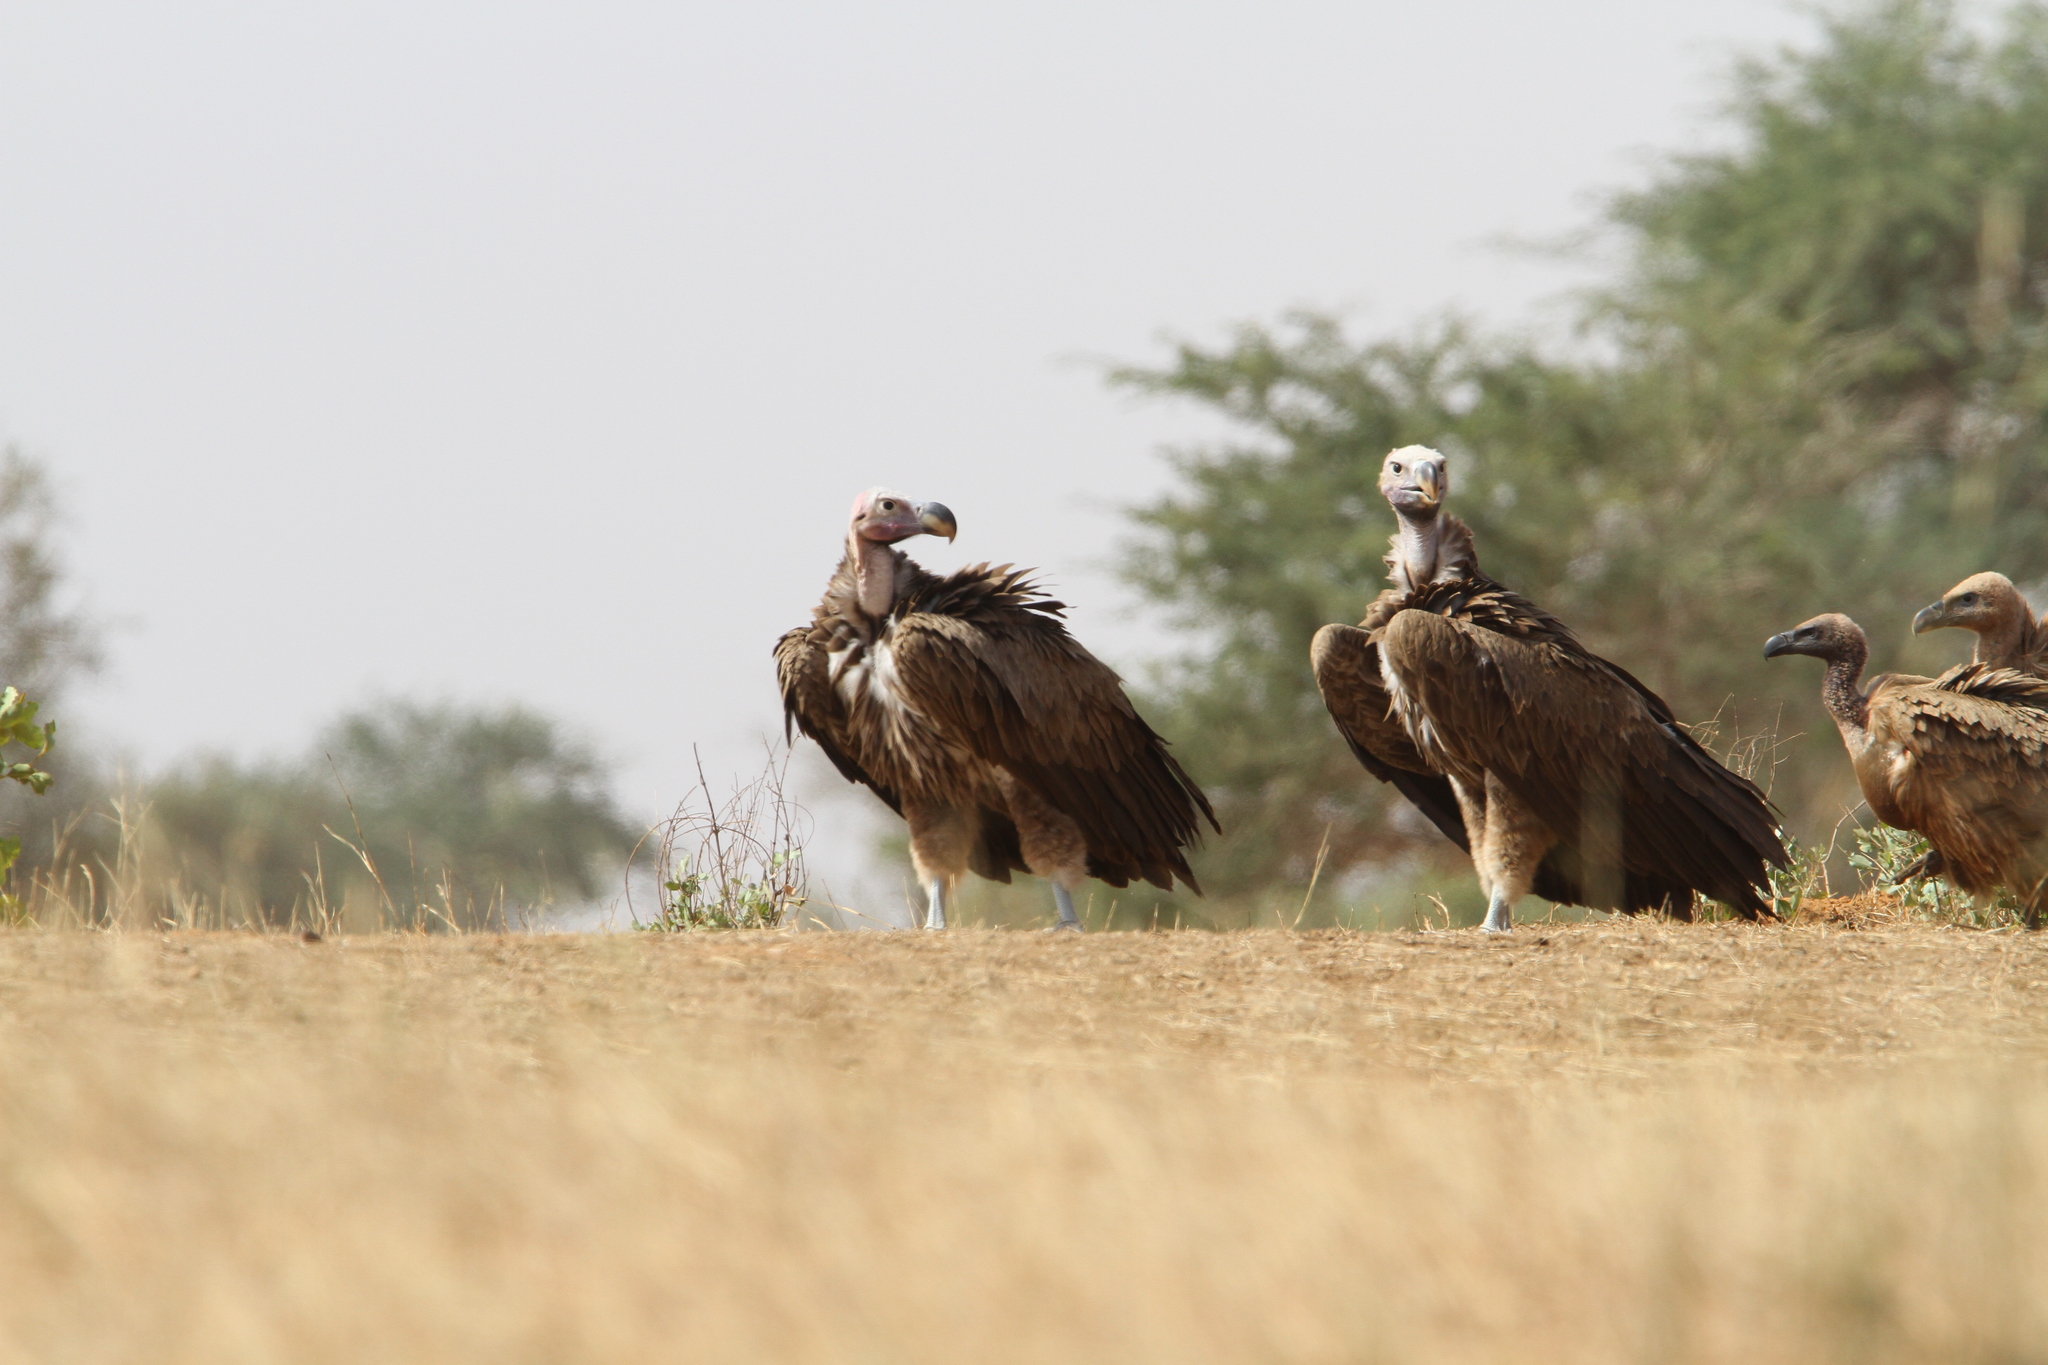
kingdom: Animalia
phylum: Chordata
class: Aves
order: Accipitriformes
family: Accipitridae
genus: Torgos
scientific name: Torgos tracheliotos
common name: Lappet-faced vulture
